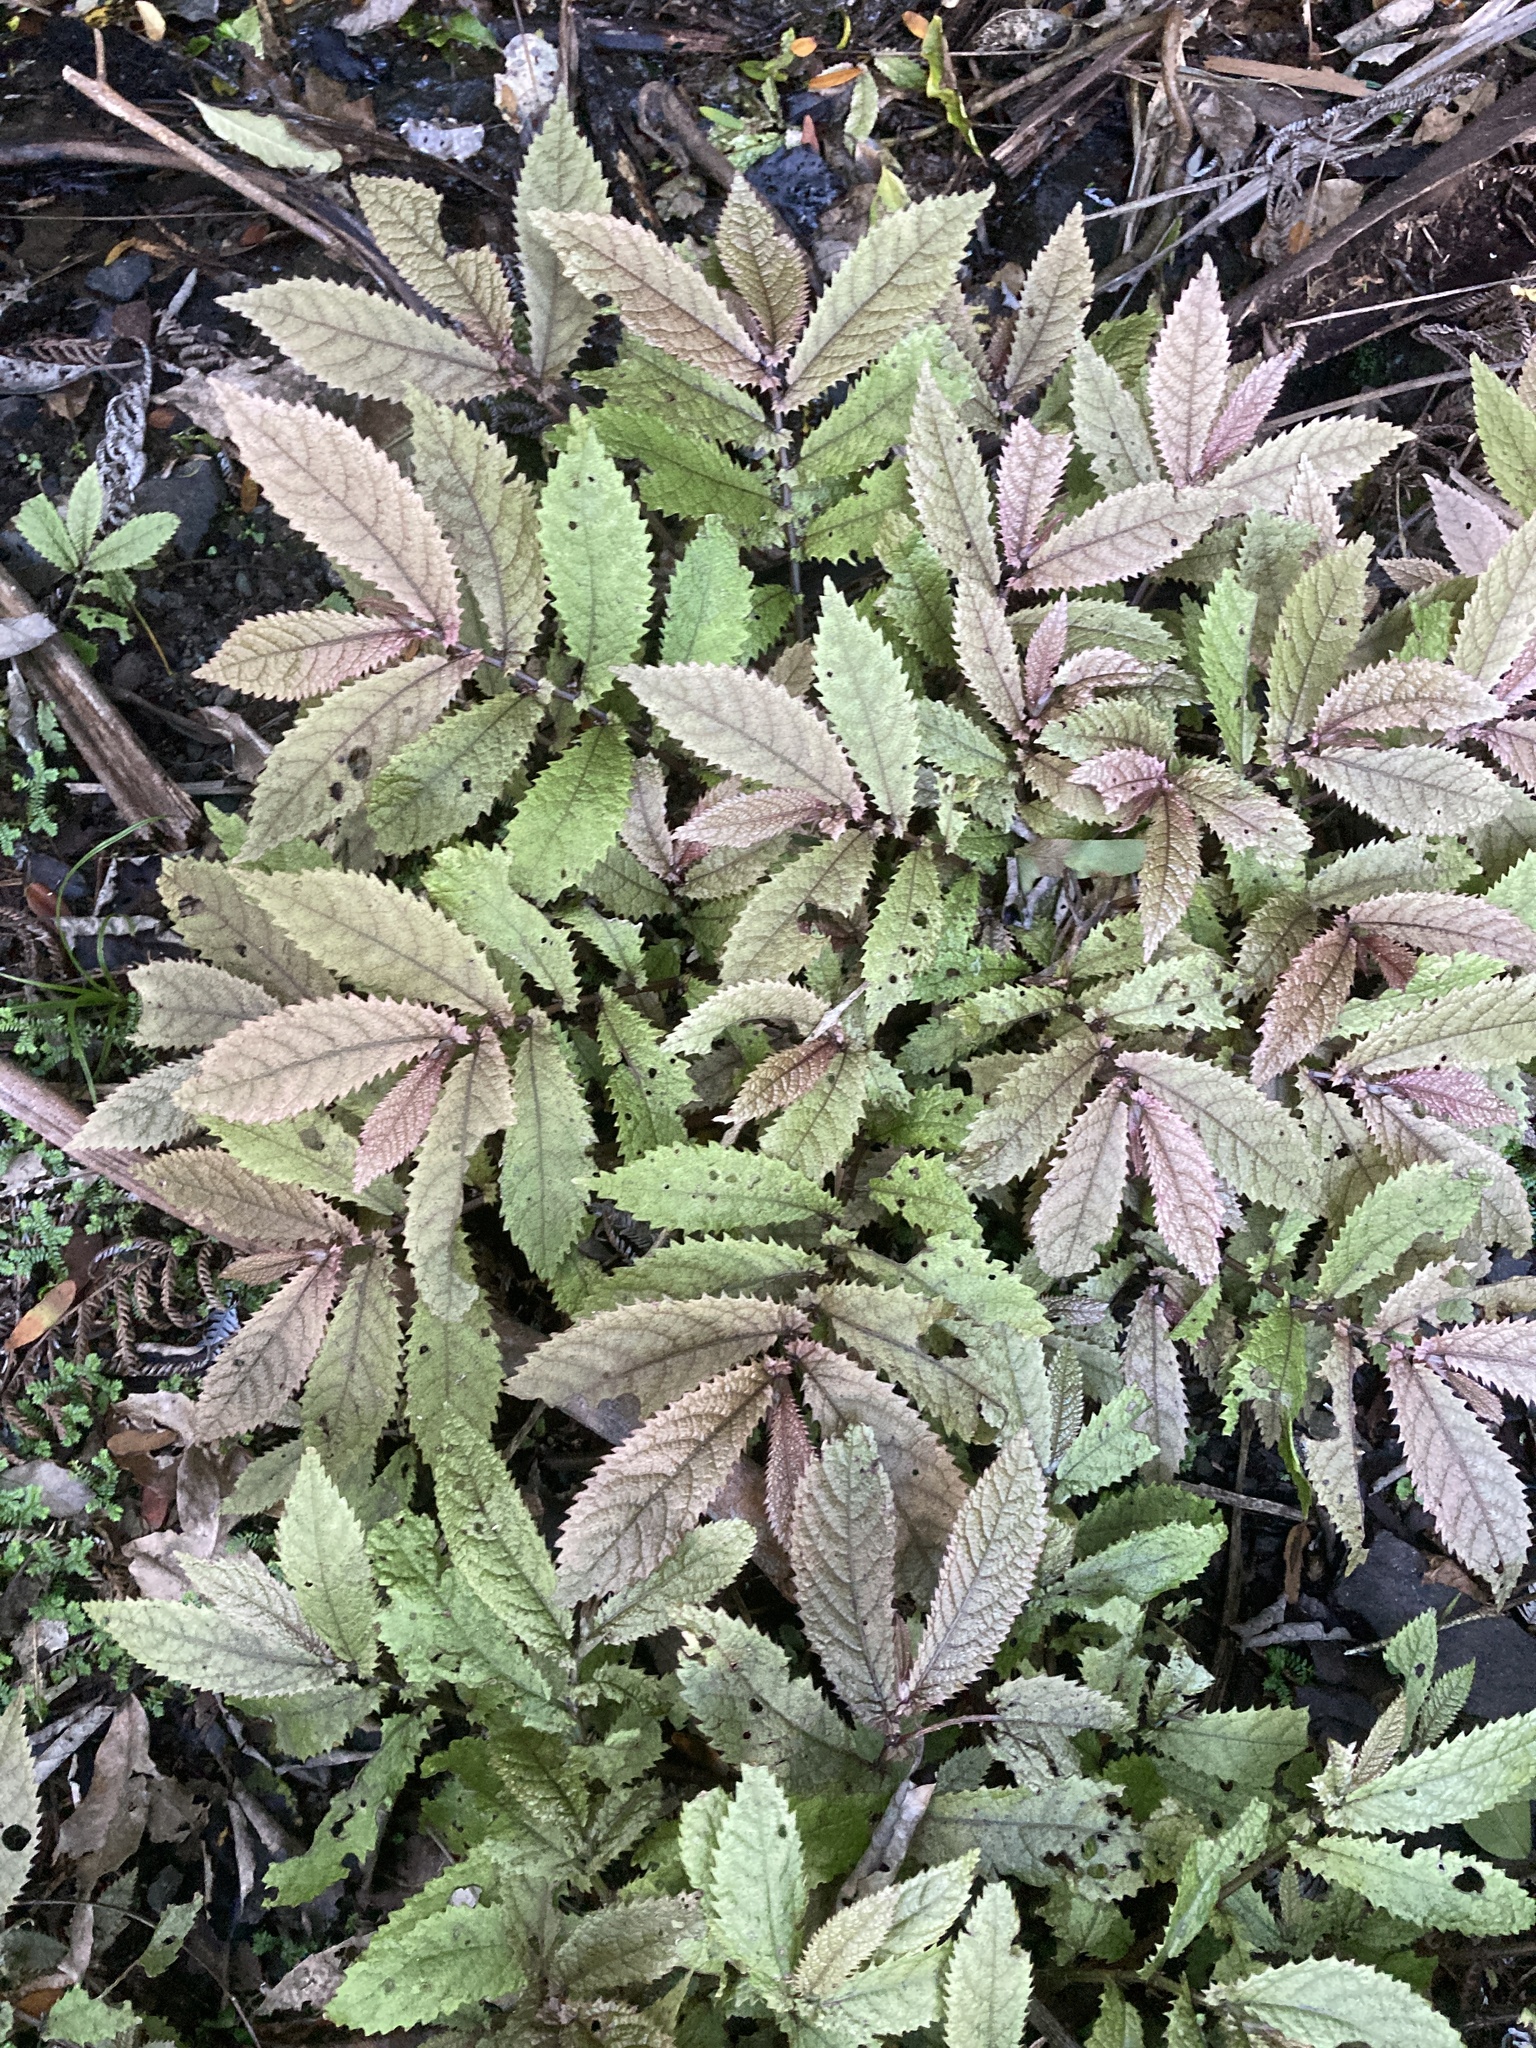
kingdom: Plantae
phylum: Tracheophyta
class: Magnoliopsida
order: Rosales
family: Urticaceae
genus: Elatostema
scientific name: Elatostema rugosum
